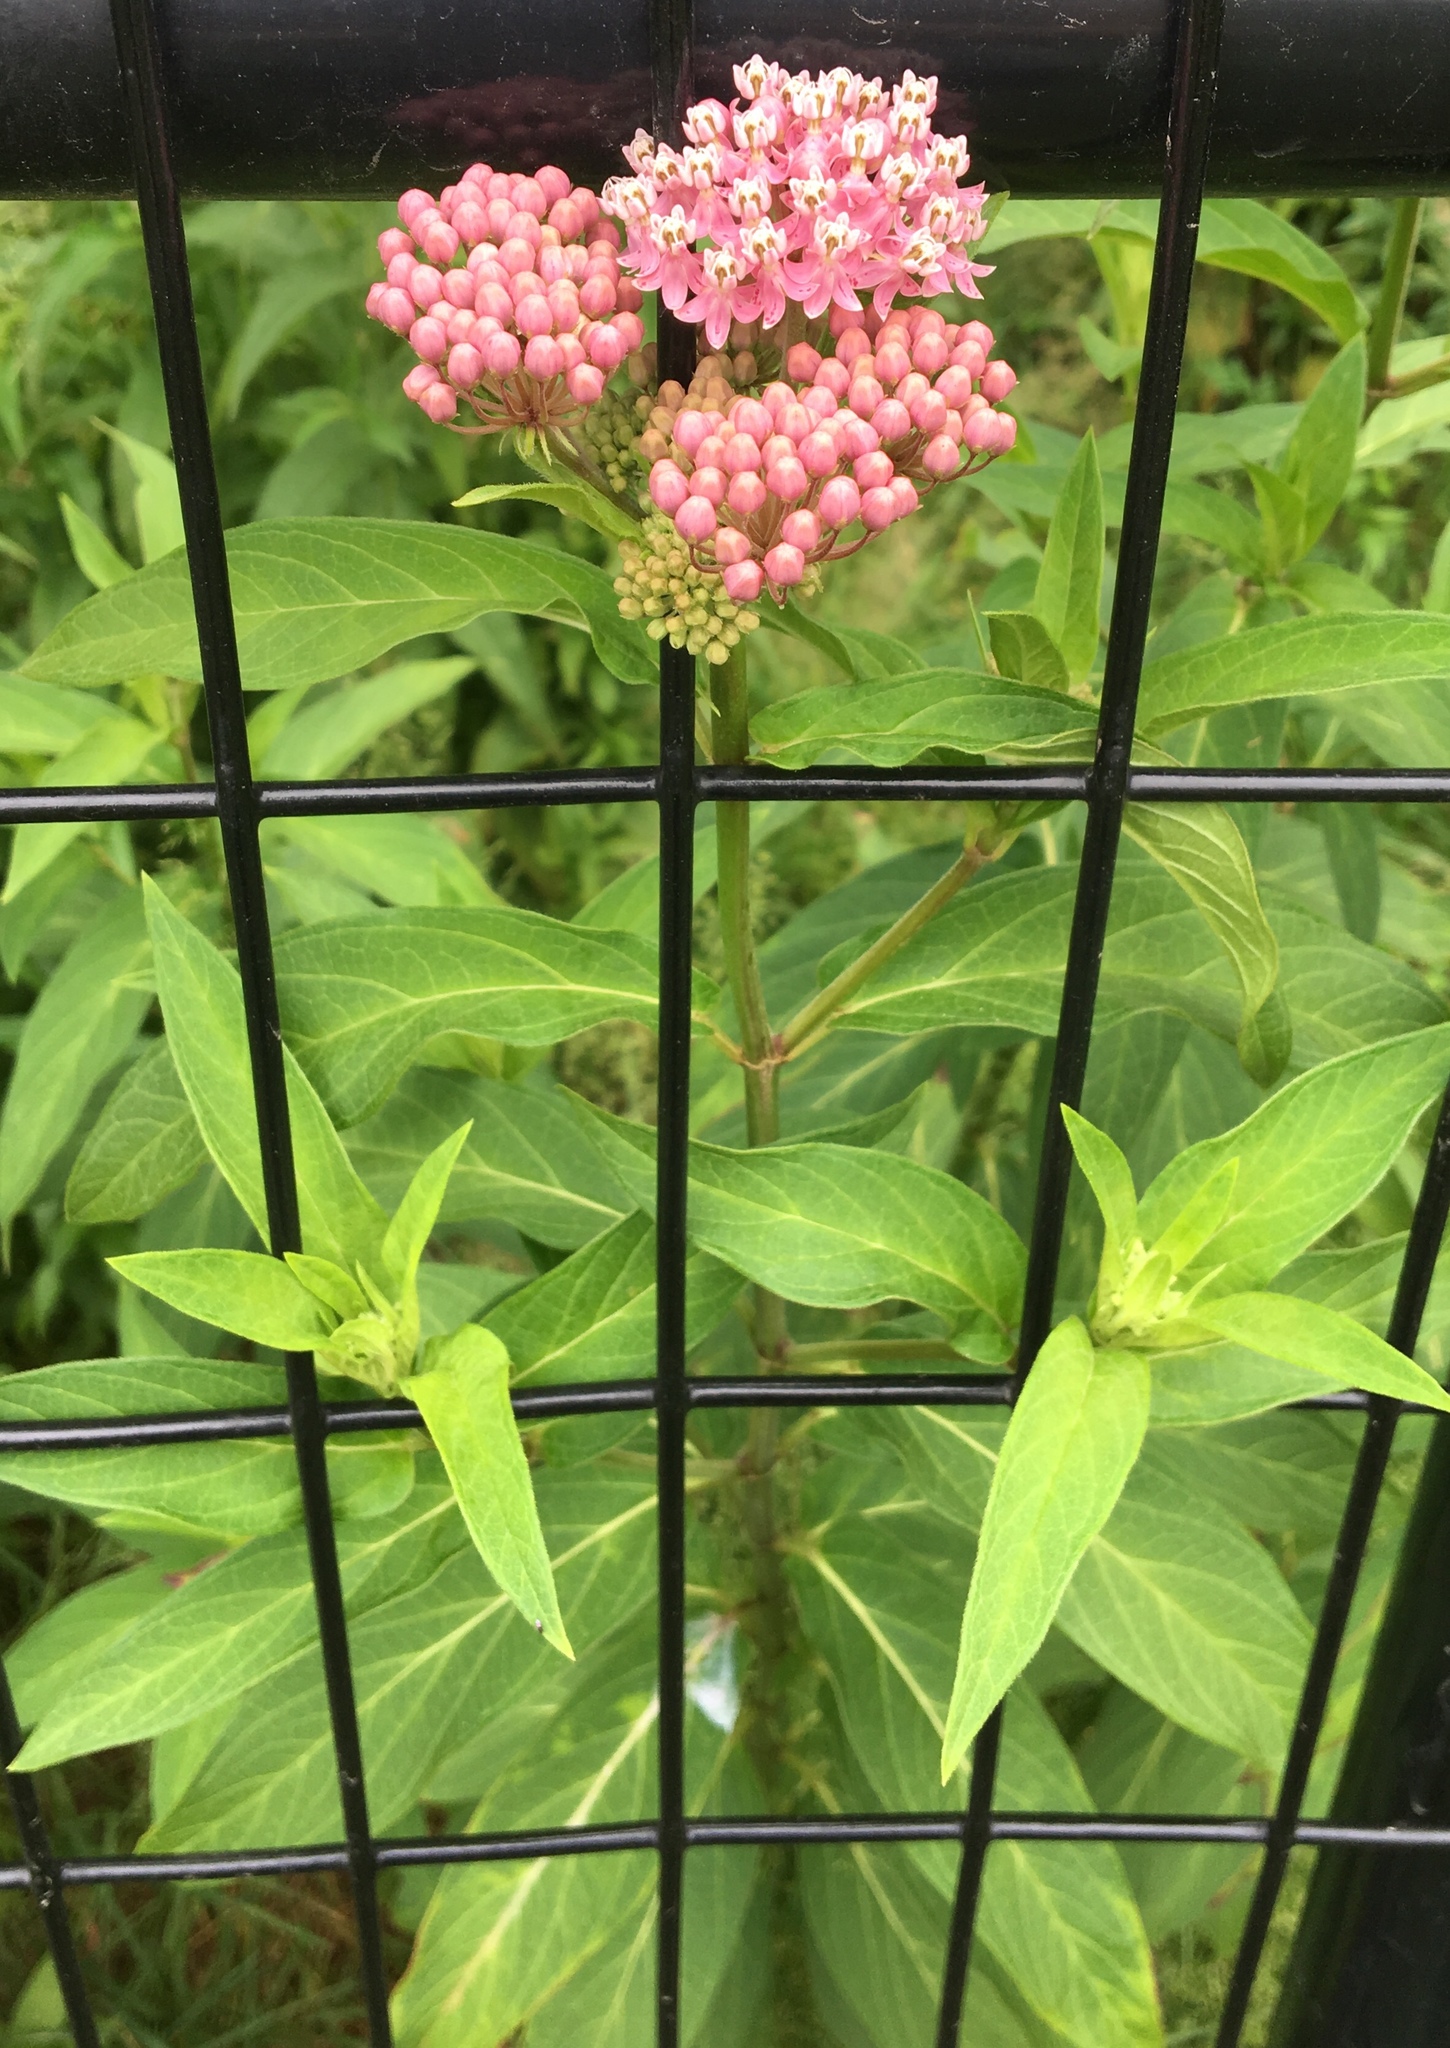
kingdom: Plantae
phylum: Tracheophyta
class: Magnoliopsida
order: Gentianales
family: Apocynaceae
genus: Asclepias
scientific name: Asclepias incarnata
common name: Swamp milkweed
